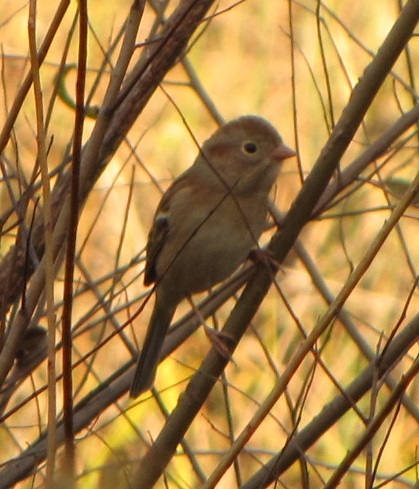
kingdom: Animalia
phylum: Chordata
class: Aves
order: Passeriformes
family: Passerellidae
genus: Spizella
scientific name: Spizella pusilla
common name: Field sparrow
